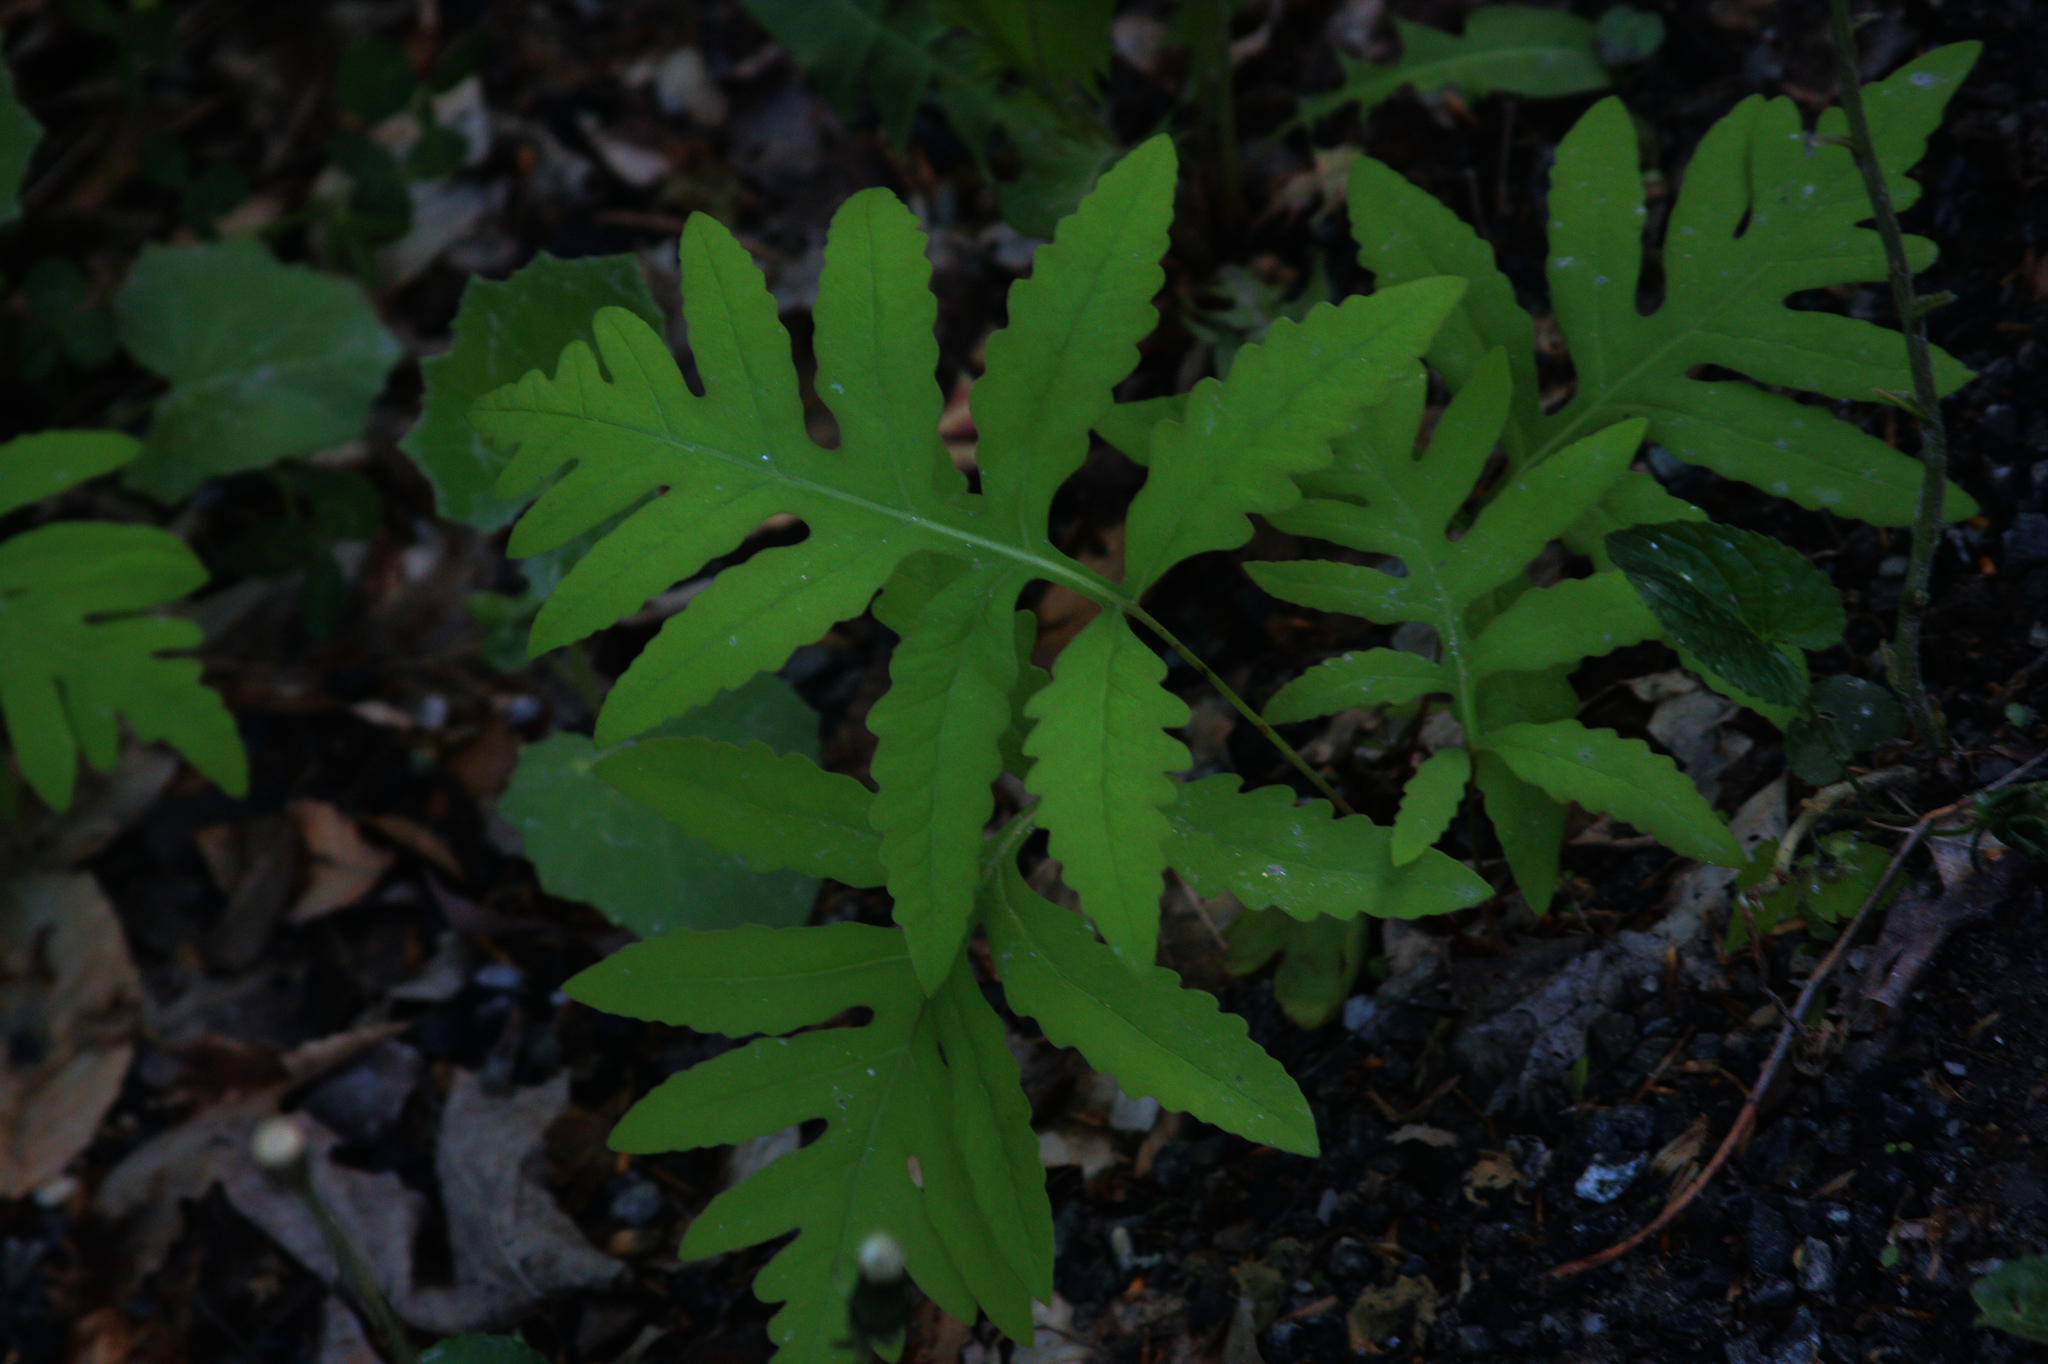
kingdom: Plantae
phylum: Tracheophyta
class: Polypodiopsida
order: Polypodiales
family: Onocleaceae
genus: Onoclea
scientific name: Onoclea sensibilis
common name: Sensitive fern
